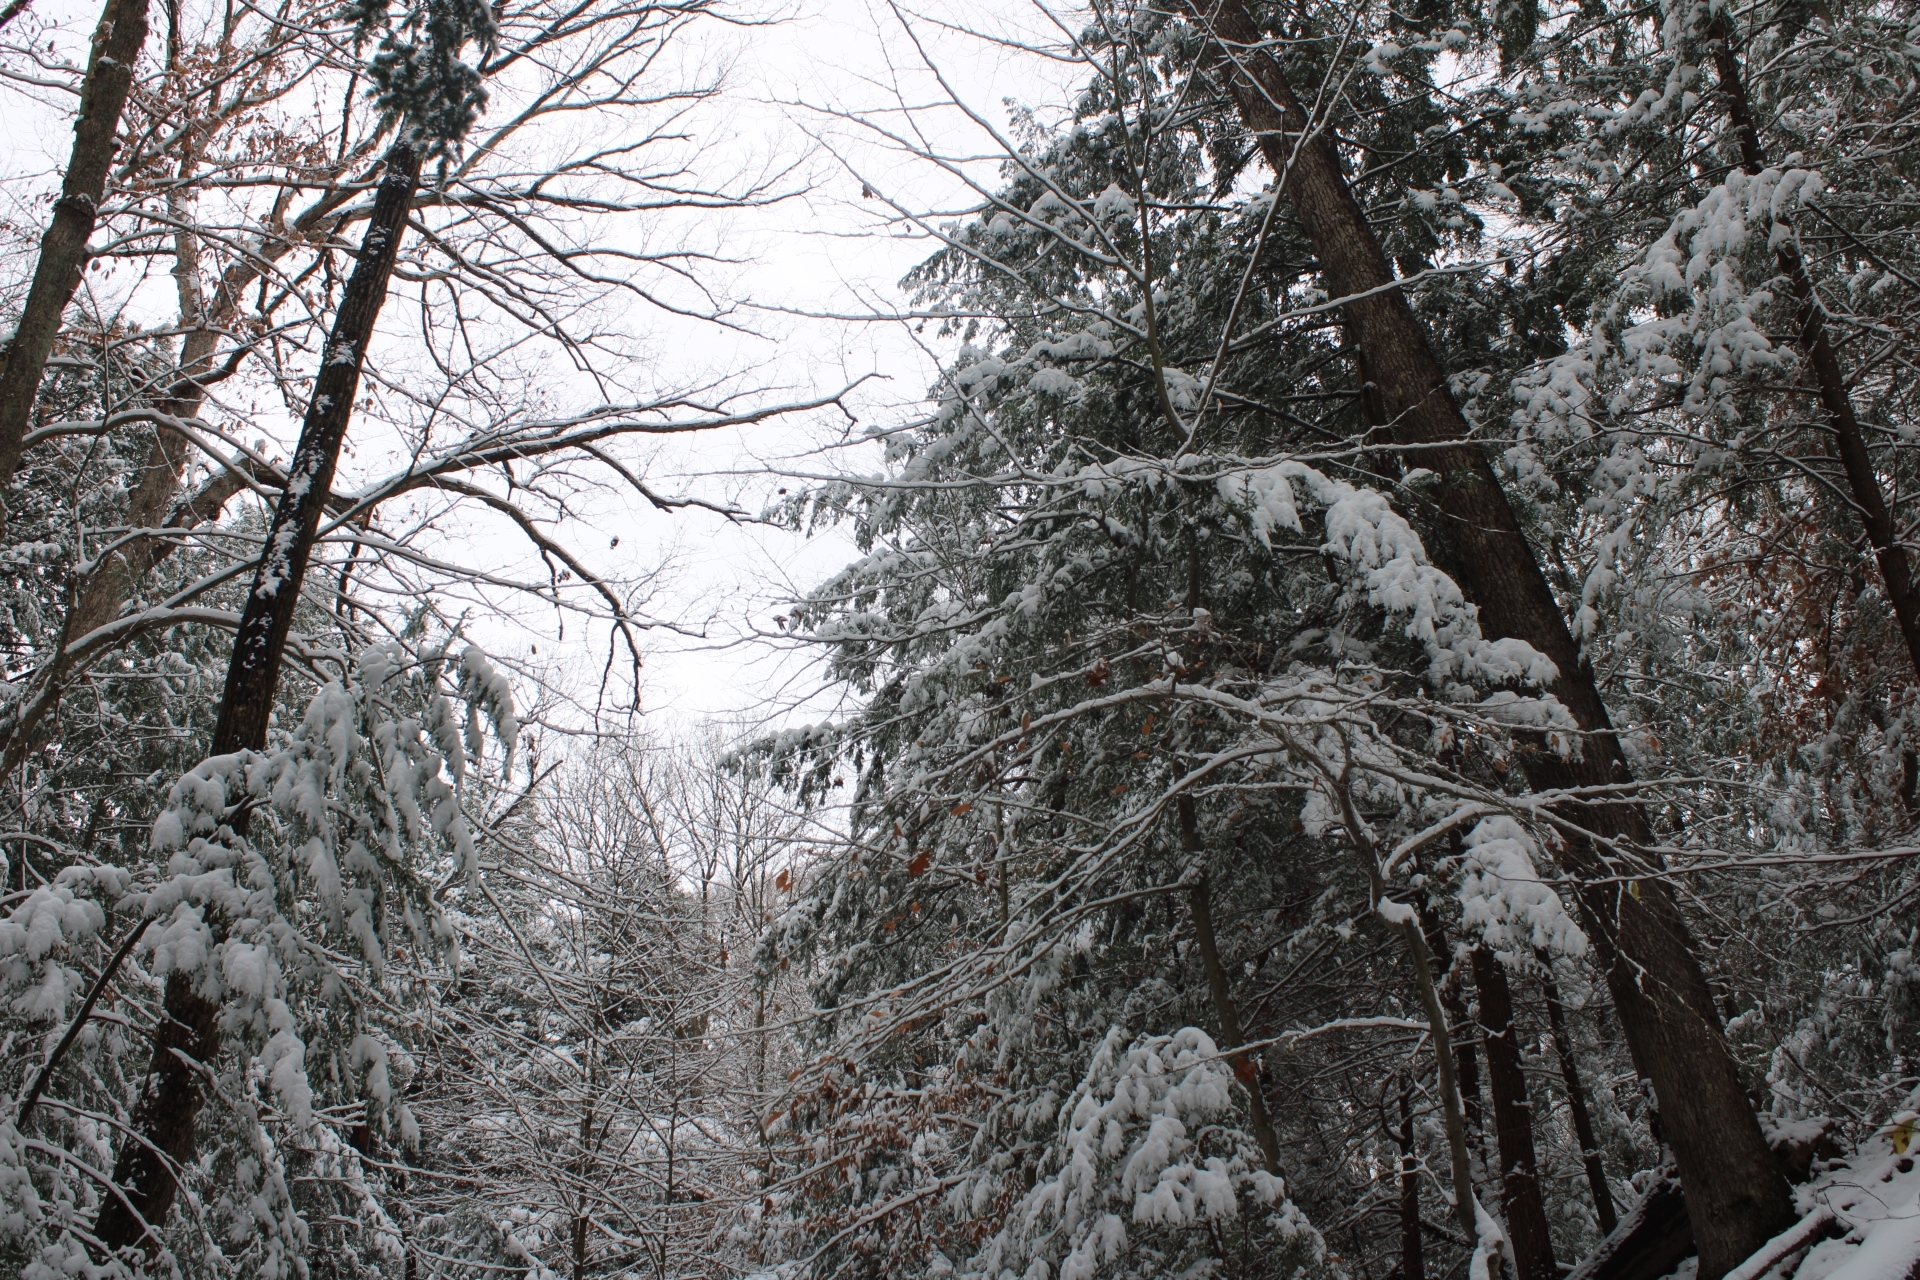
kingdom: Plantae
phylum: Tracheophyta
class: Pinopsida
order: Pinales
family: Pinaceae
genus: Tsuga
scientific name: Tsuga canadensis
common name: Eastern hemlock
